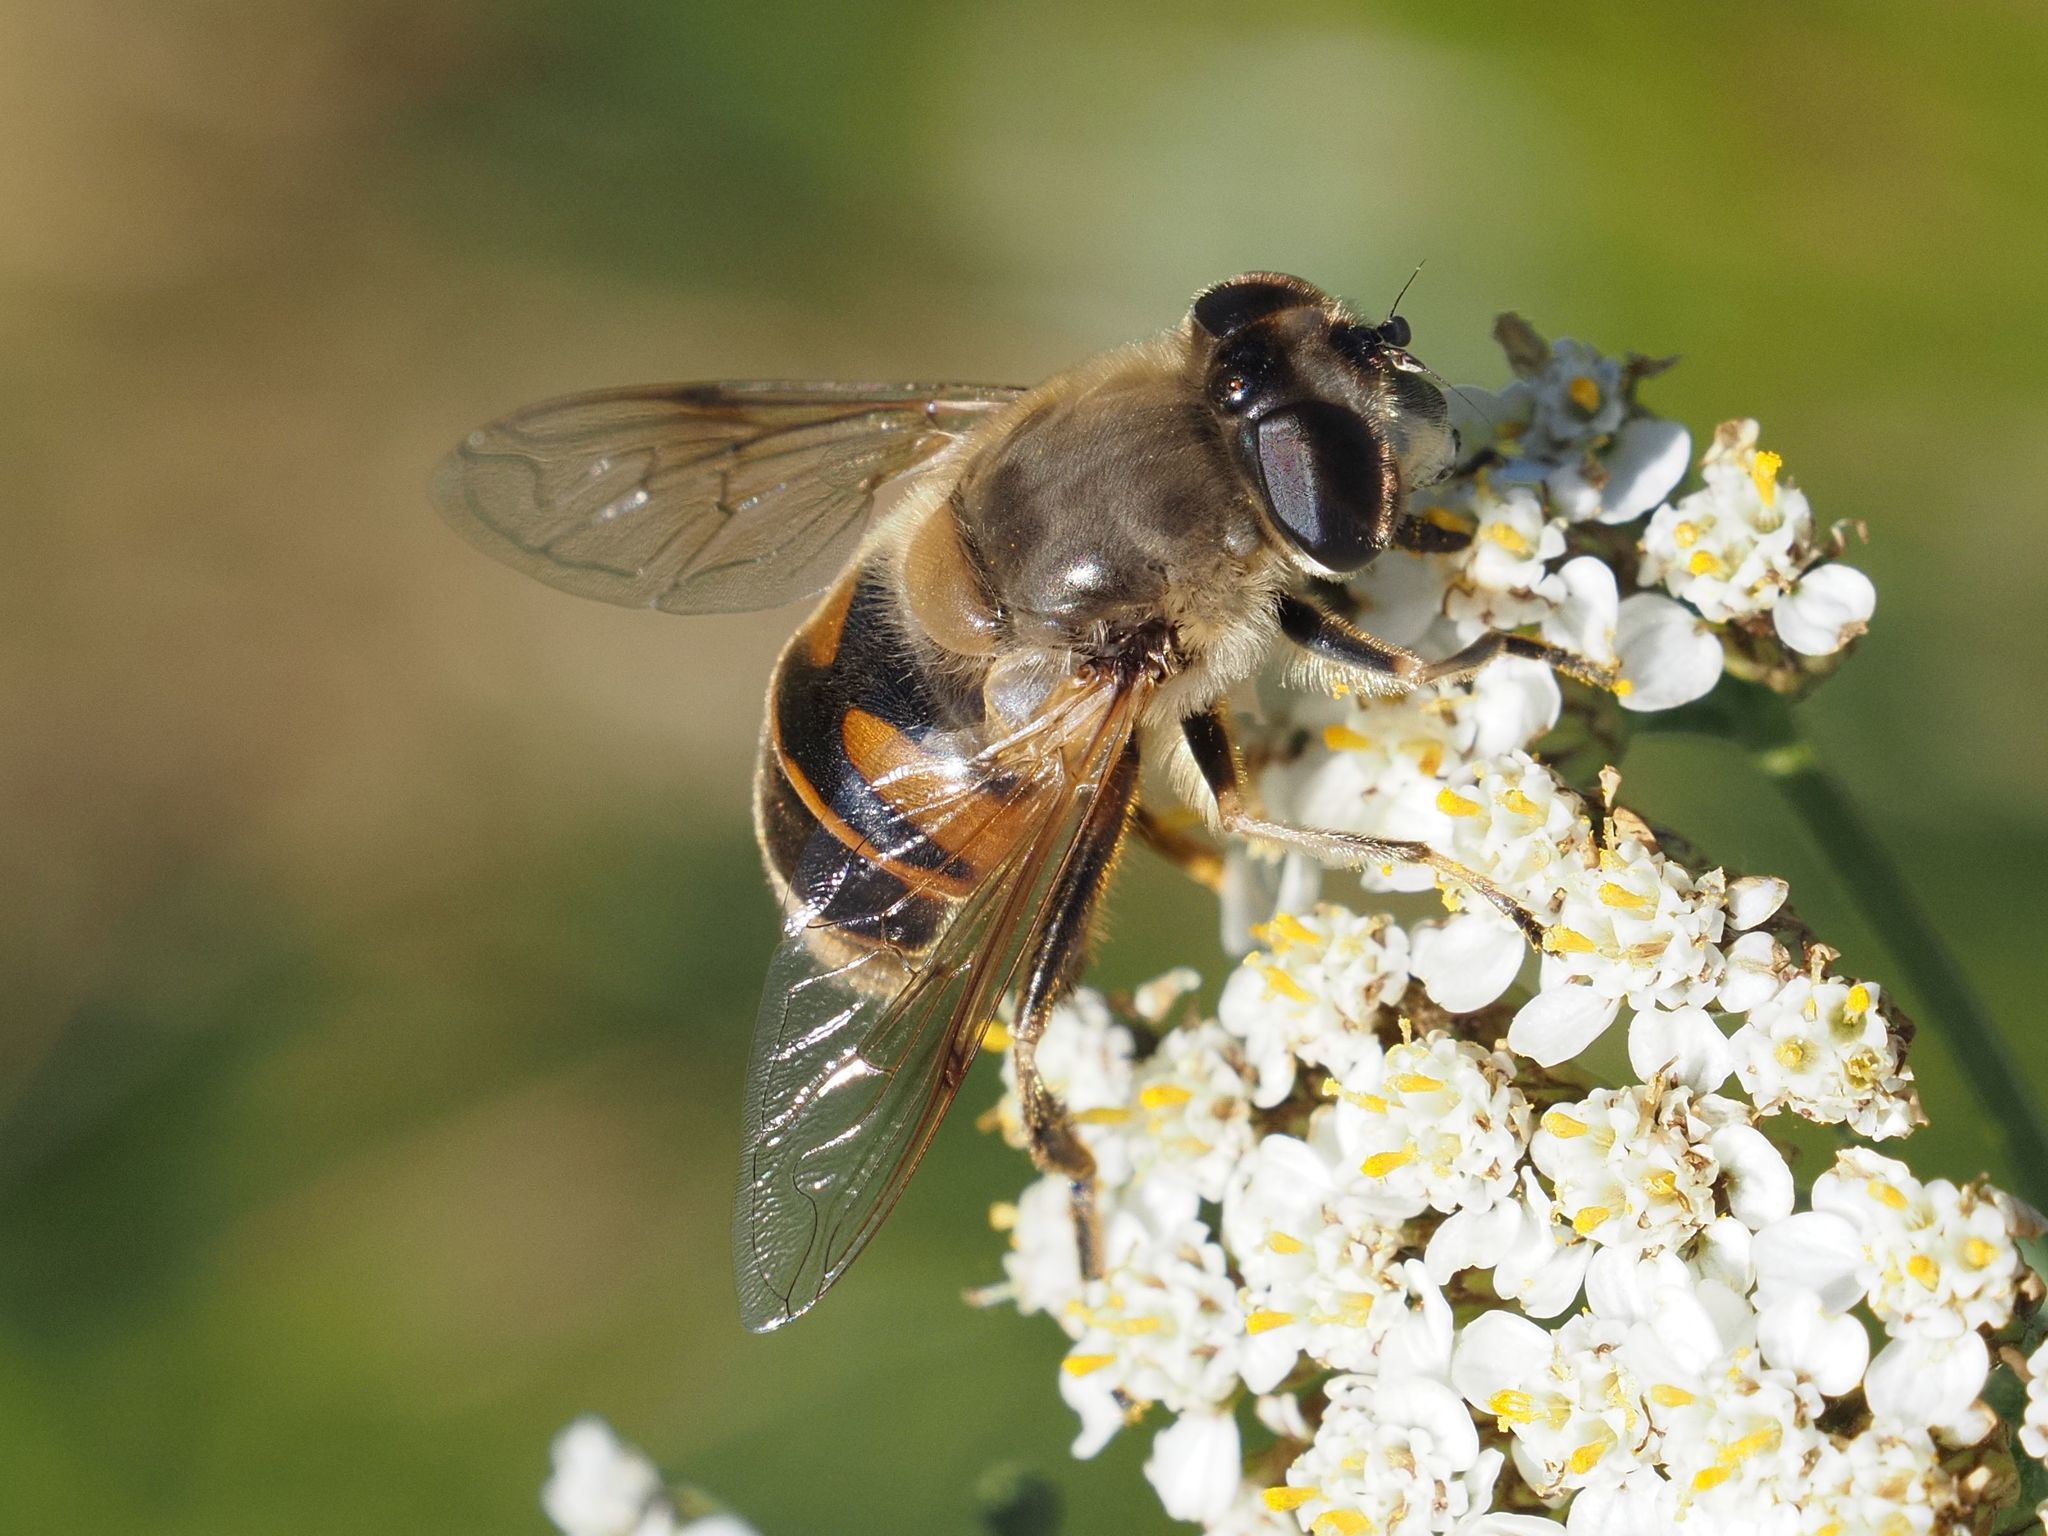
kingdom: Animalia
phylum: Arthropoda
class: Insecta
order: Diptera
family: Syrphidae
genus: Eristalis
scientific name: Eristalis tenax
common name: Drone fly
